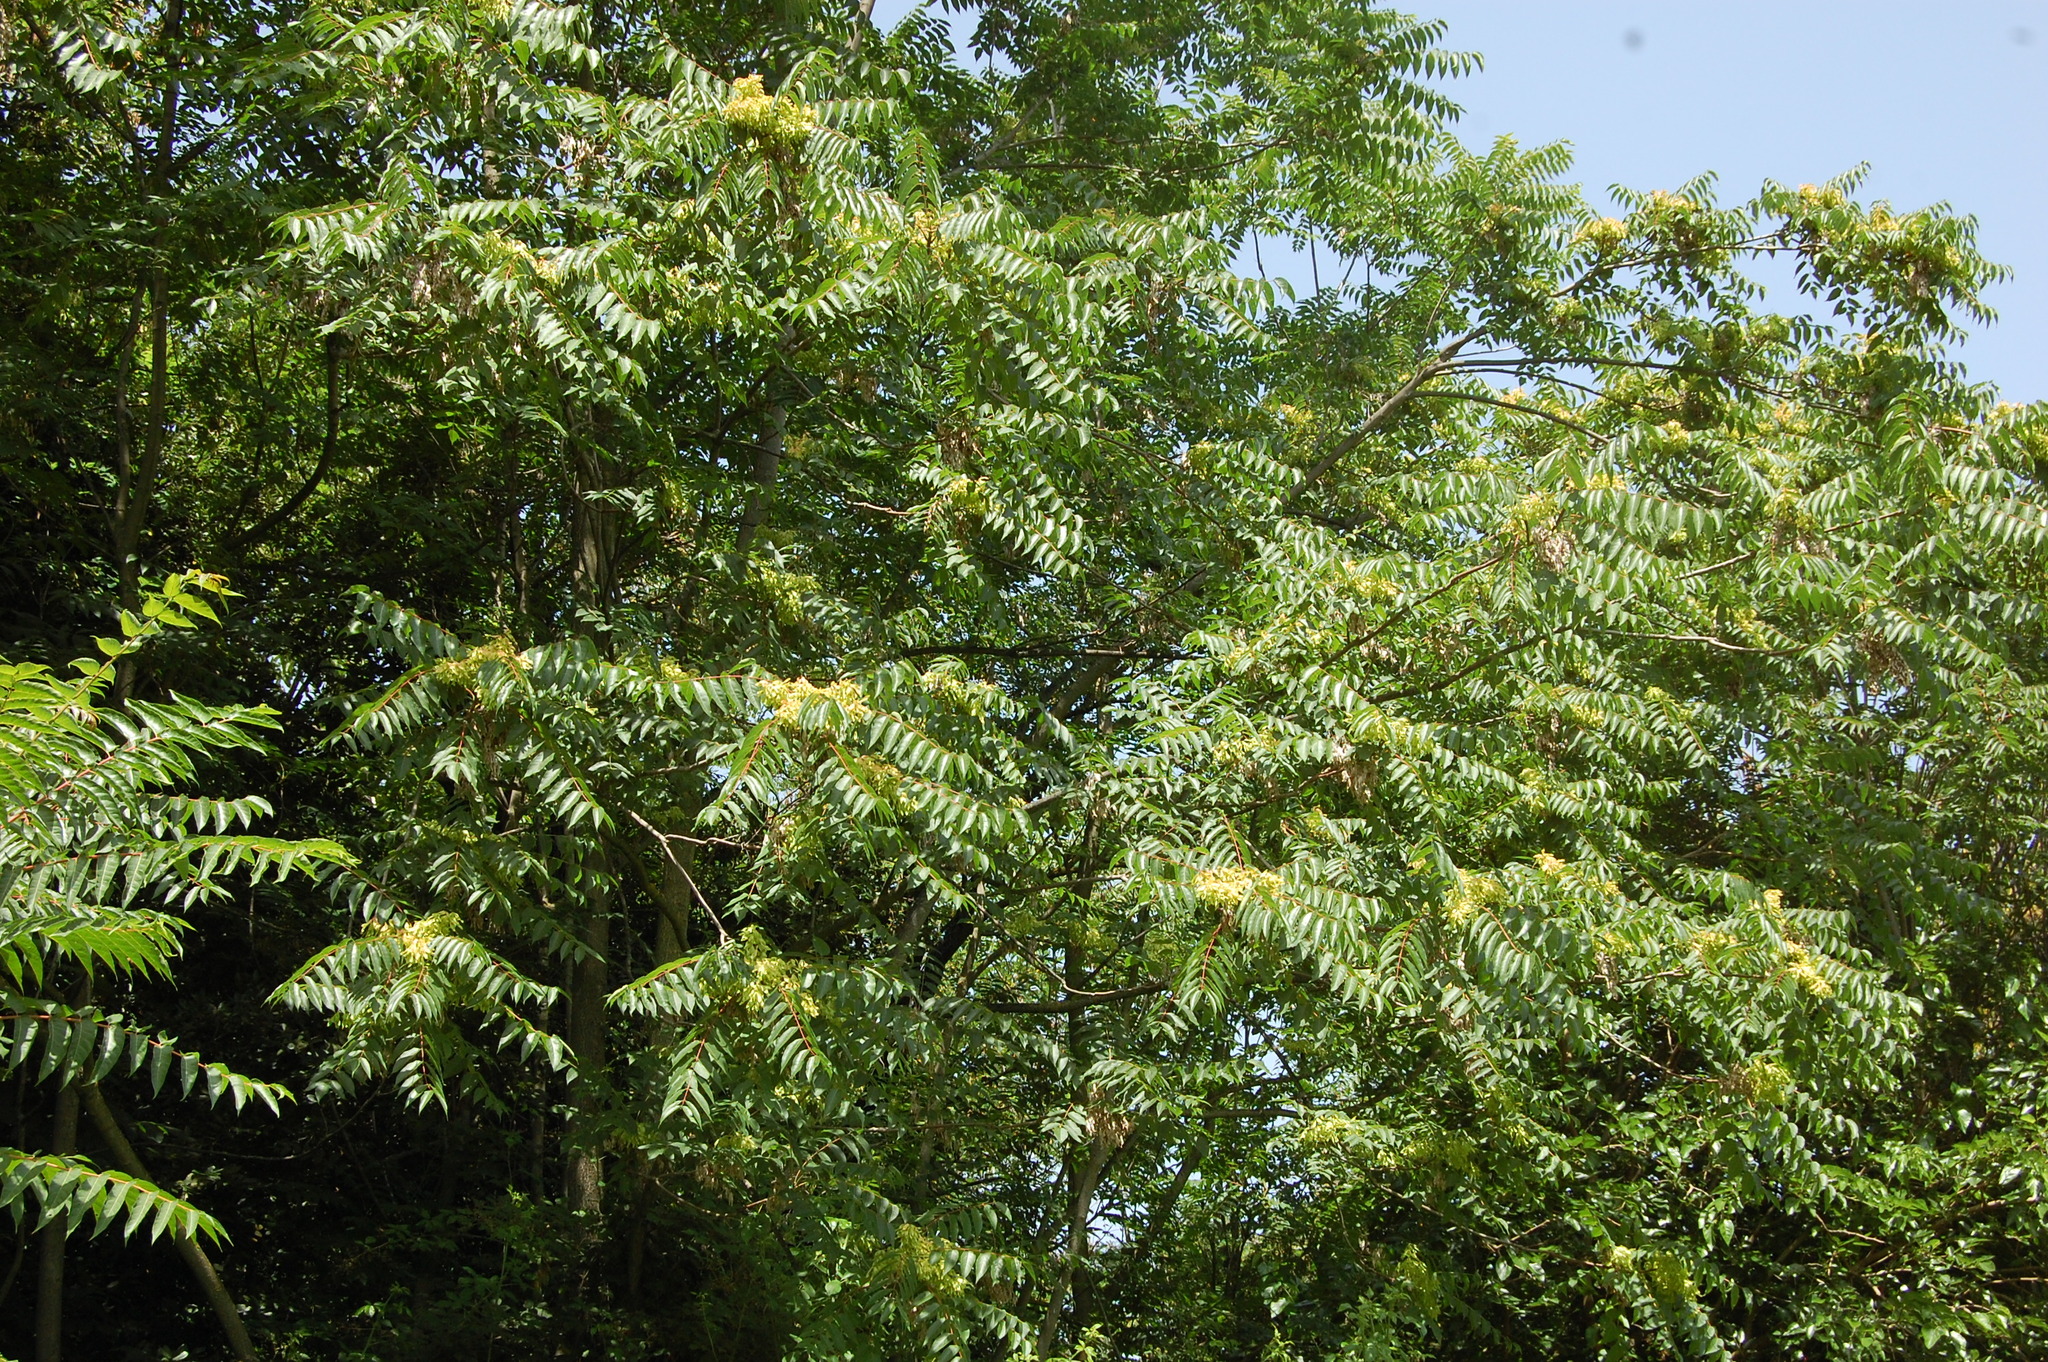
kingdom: Plantae
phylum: Tracheophyta
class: Magnoliopsida
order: Sapindales
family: Simaroubaceae
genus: Ailanthus
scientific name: Ailanthus altissima
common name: Tree-of-heaven
